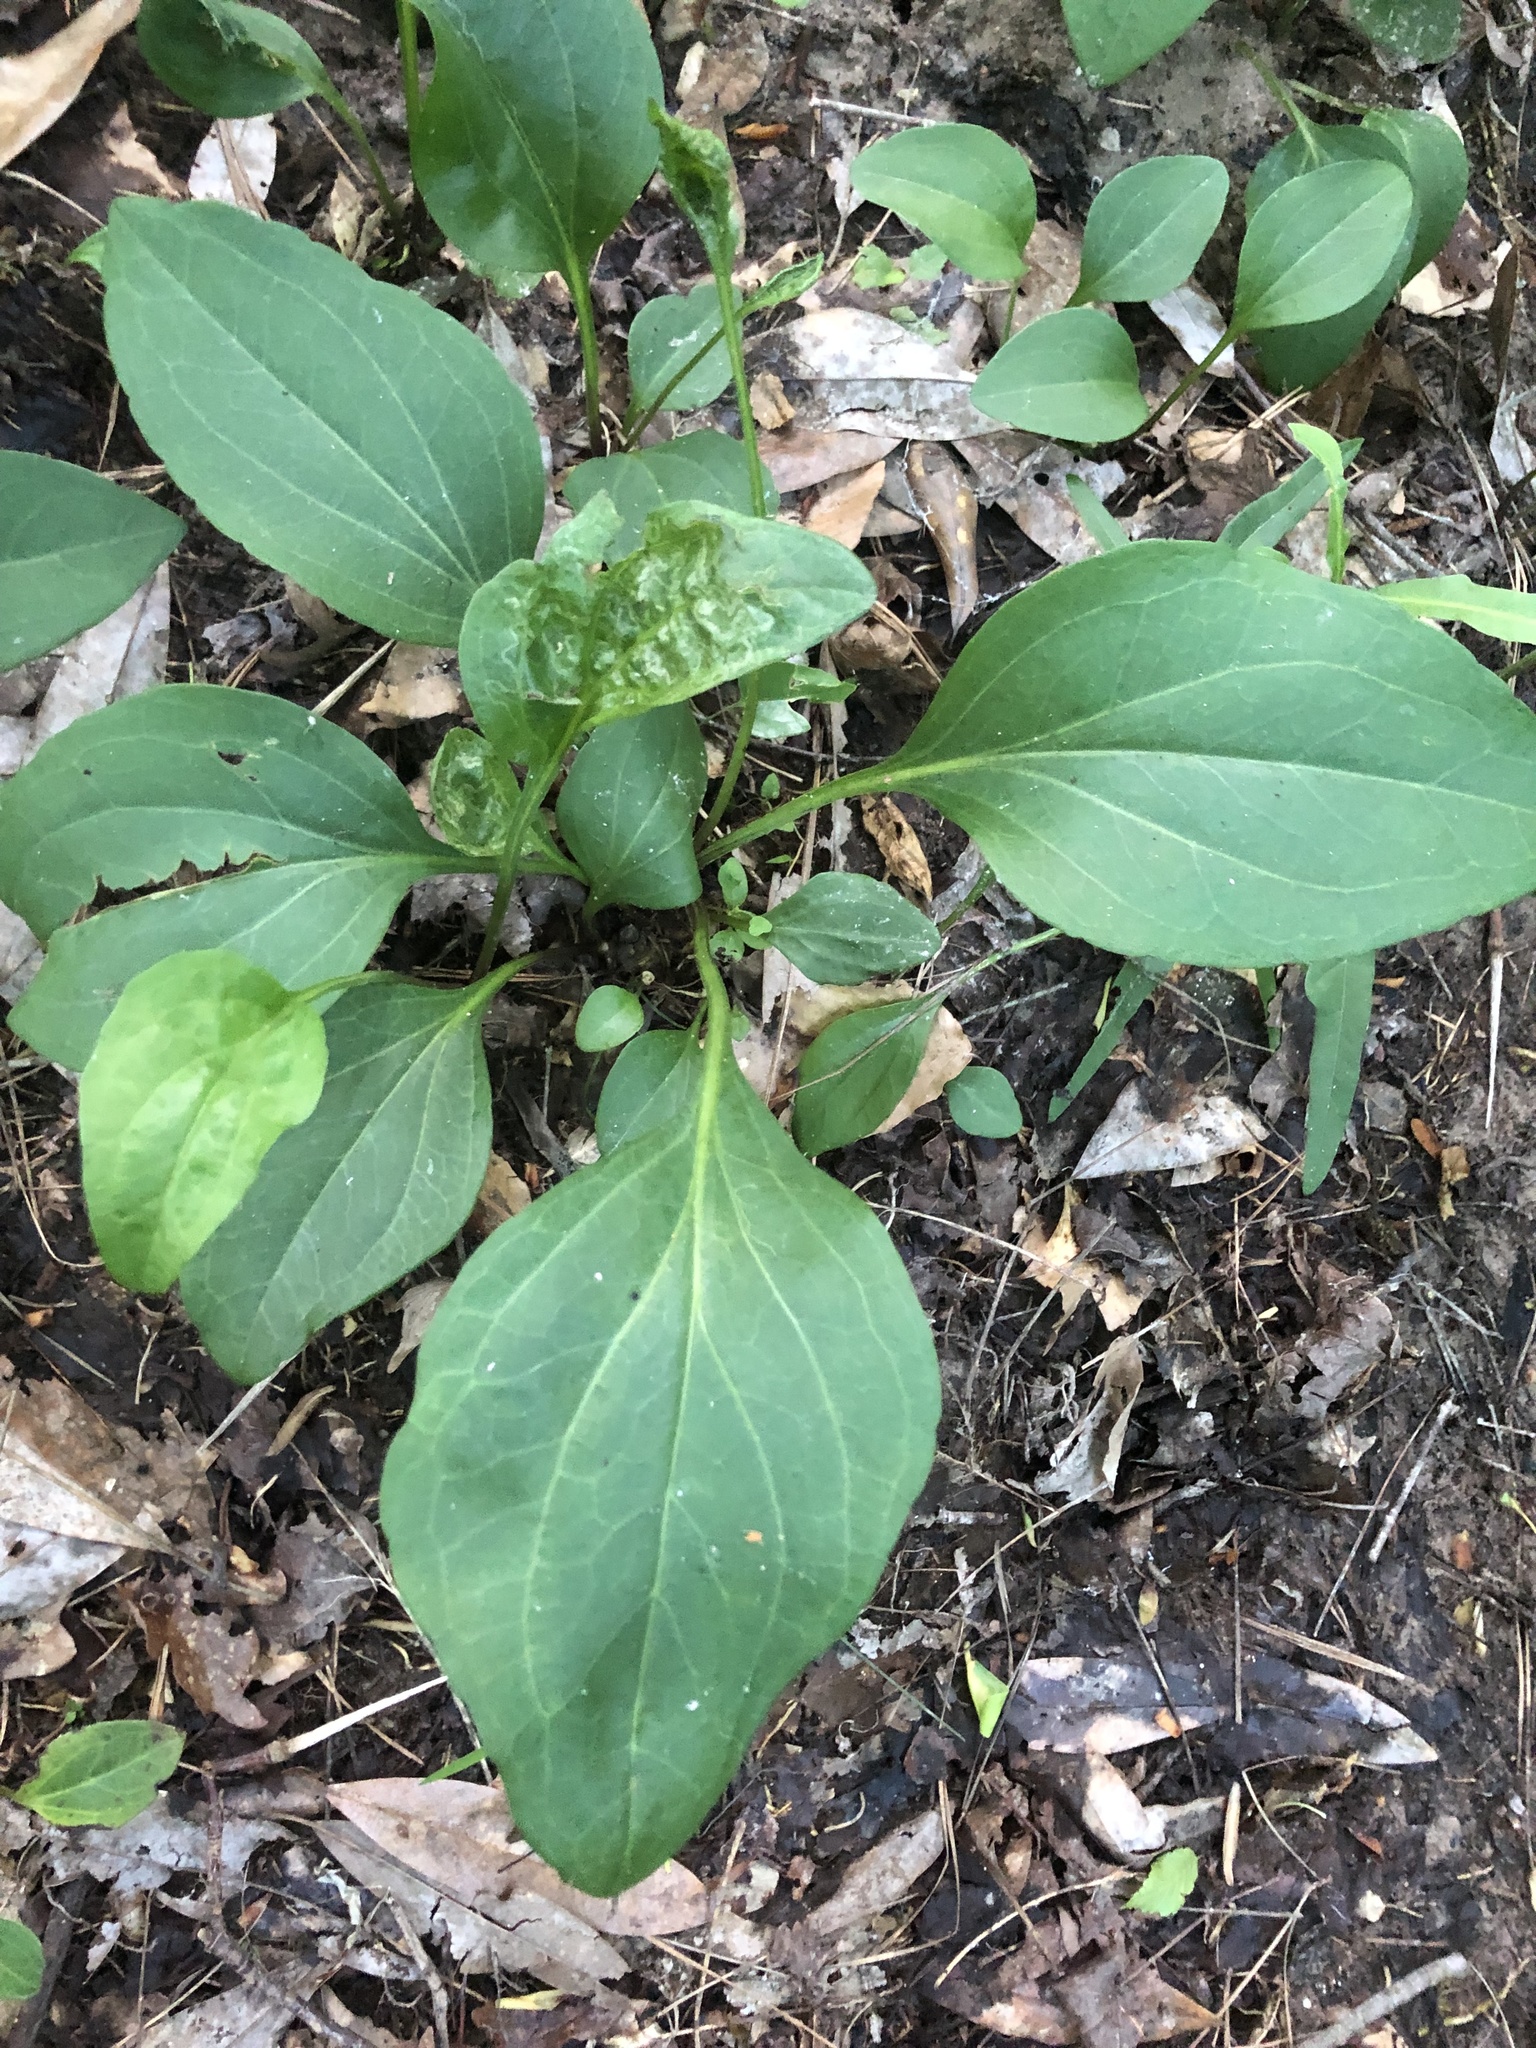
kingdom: Plantae
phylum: Tracheophyta
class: Magnoliopsida
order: Asterales
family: Asteraceae
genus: Arnoglossum
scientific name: Arnoglossum ovatum
